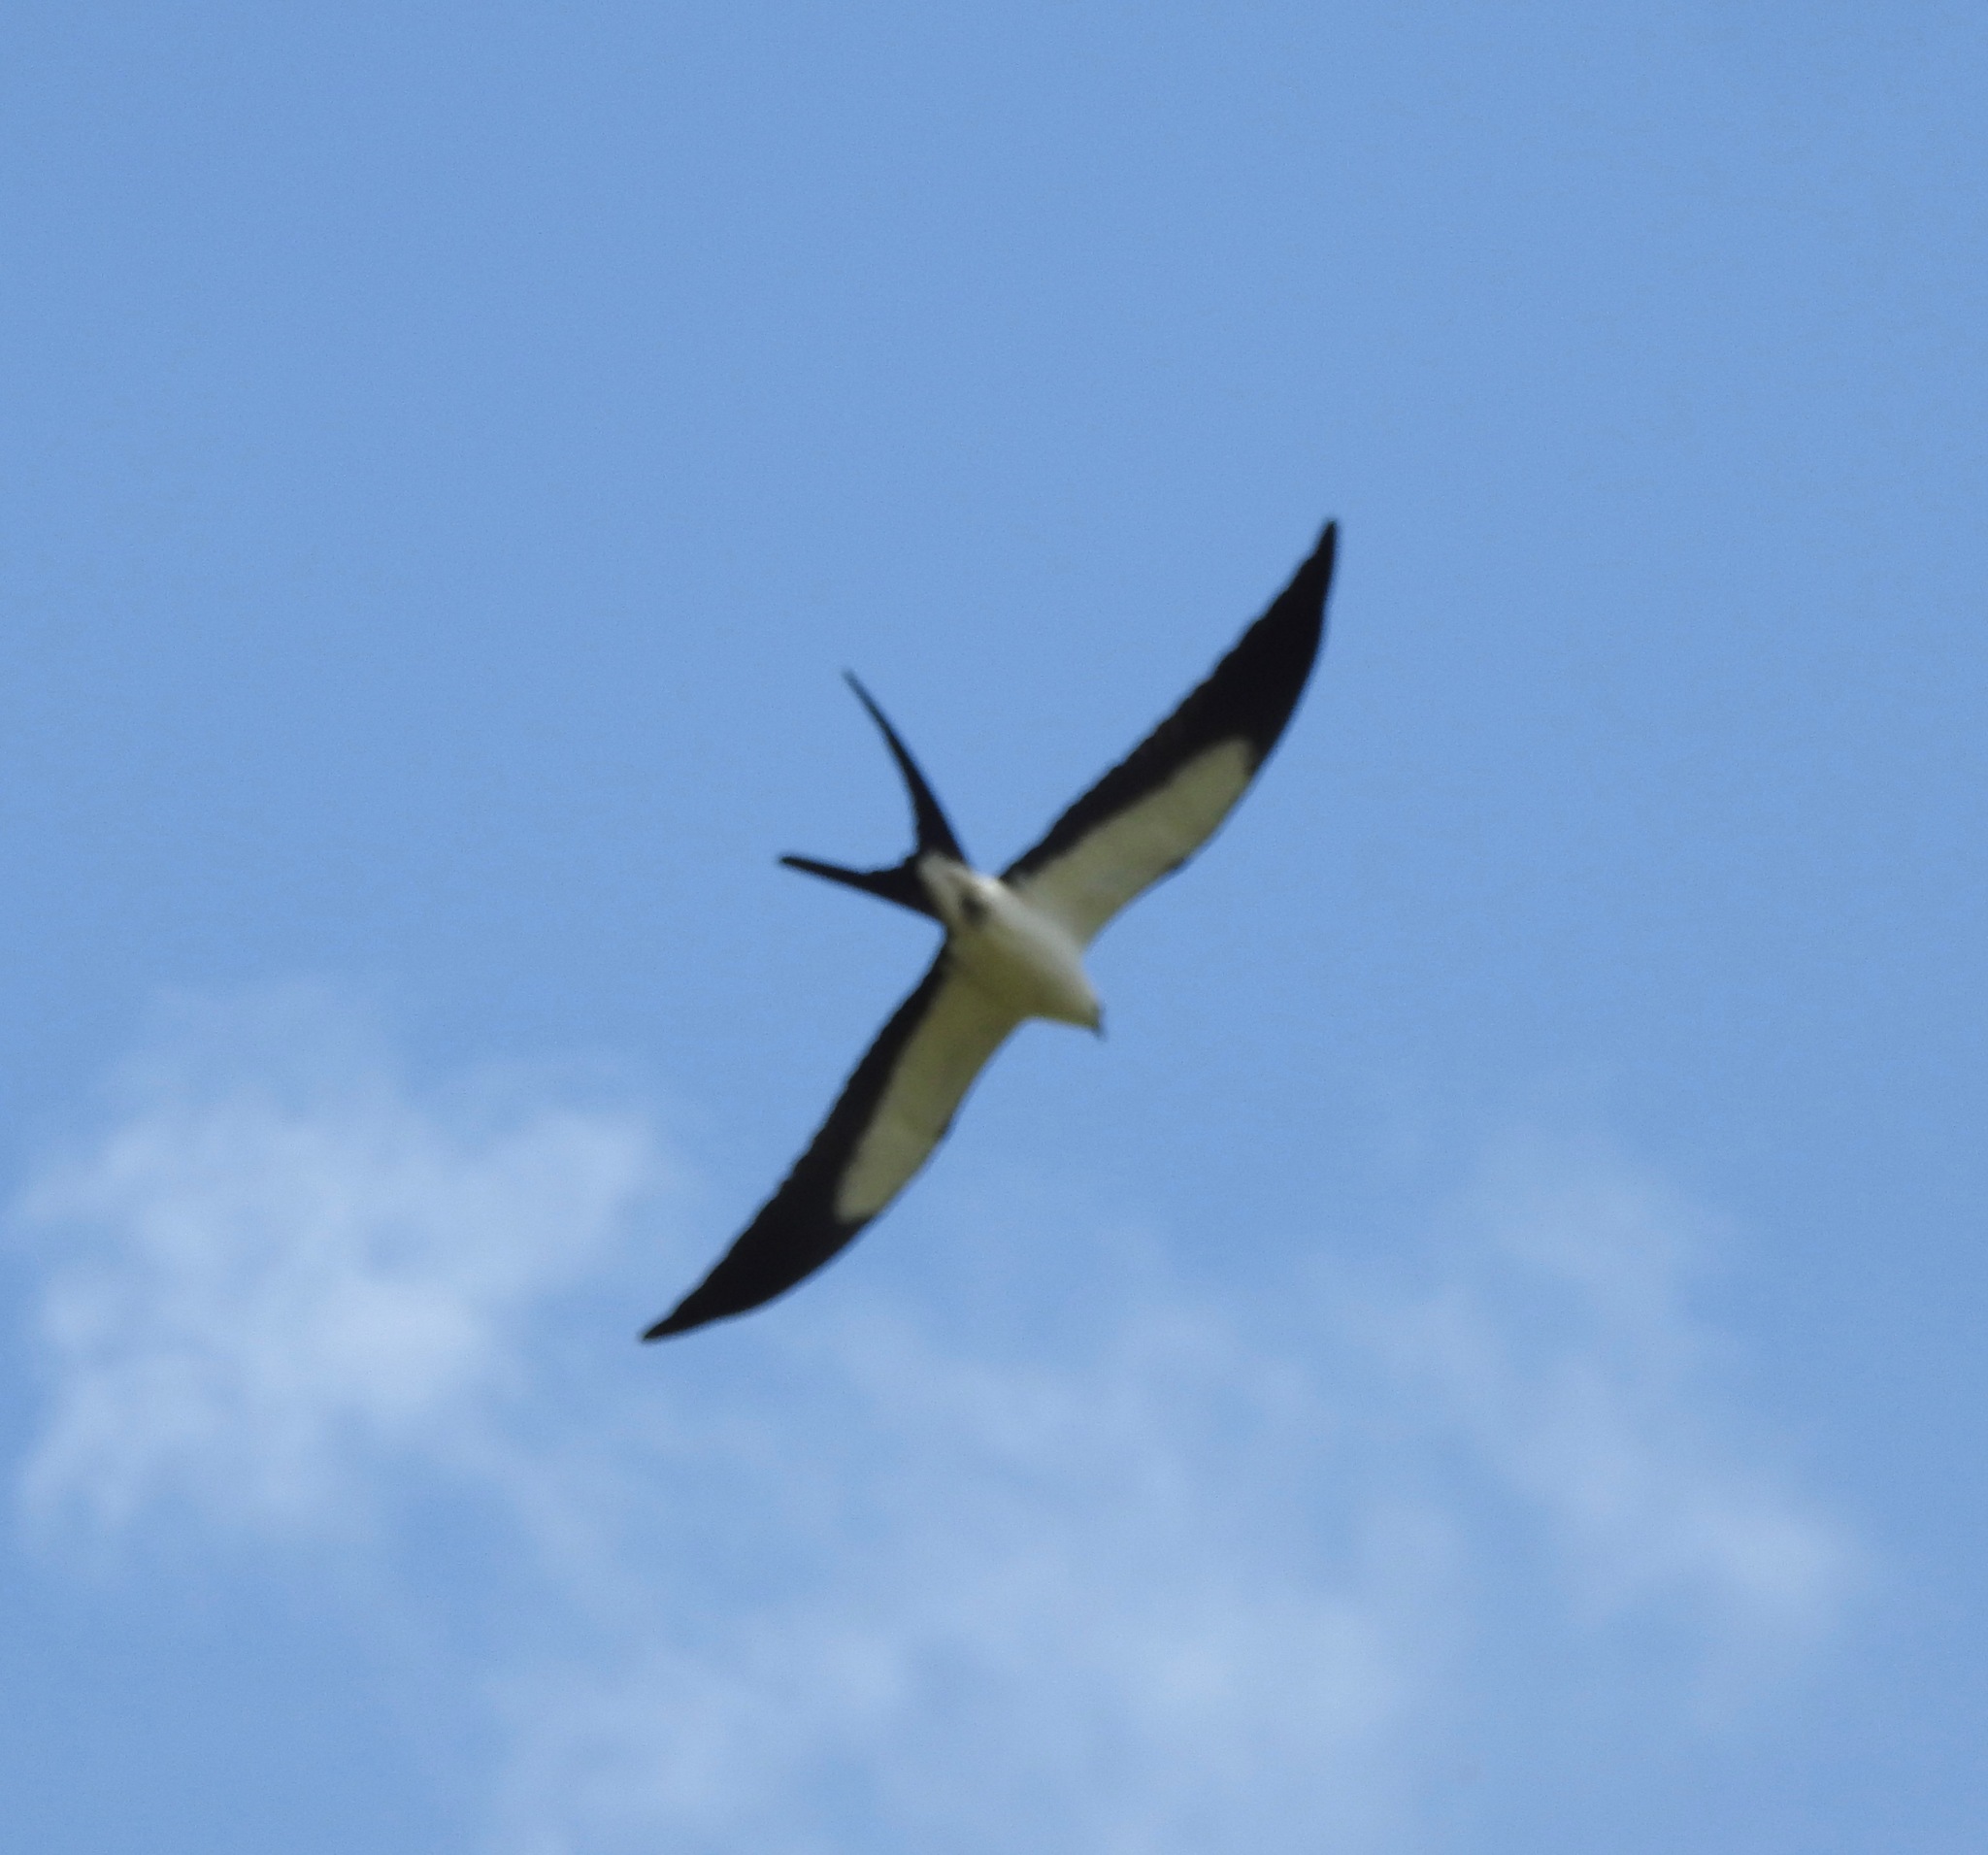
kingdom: Animalia
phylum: Chordata
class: Aves
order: Accipitriformes
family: Accipitridae
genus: Elanoides
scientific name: Elanoides forficatus
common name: Swallow-tailed kite
